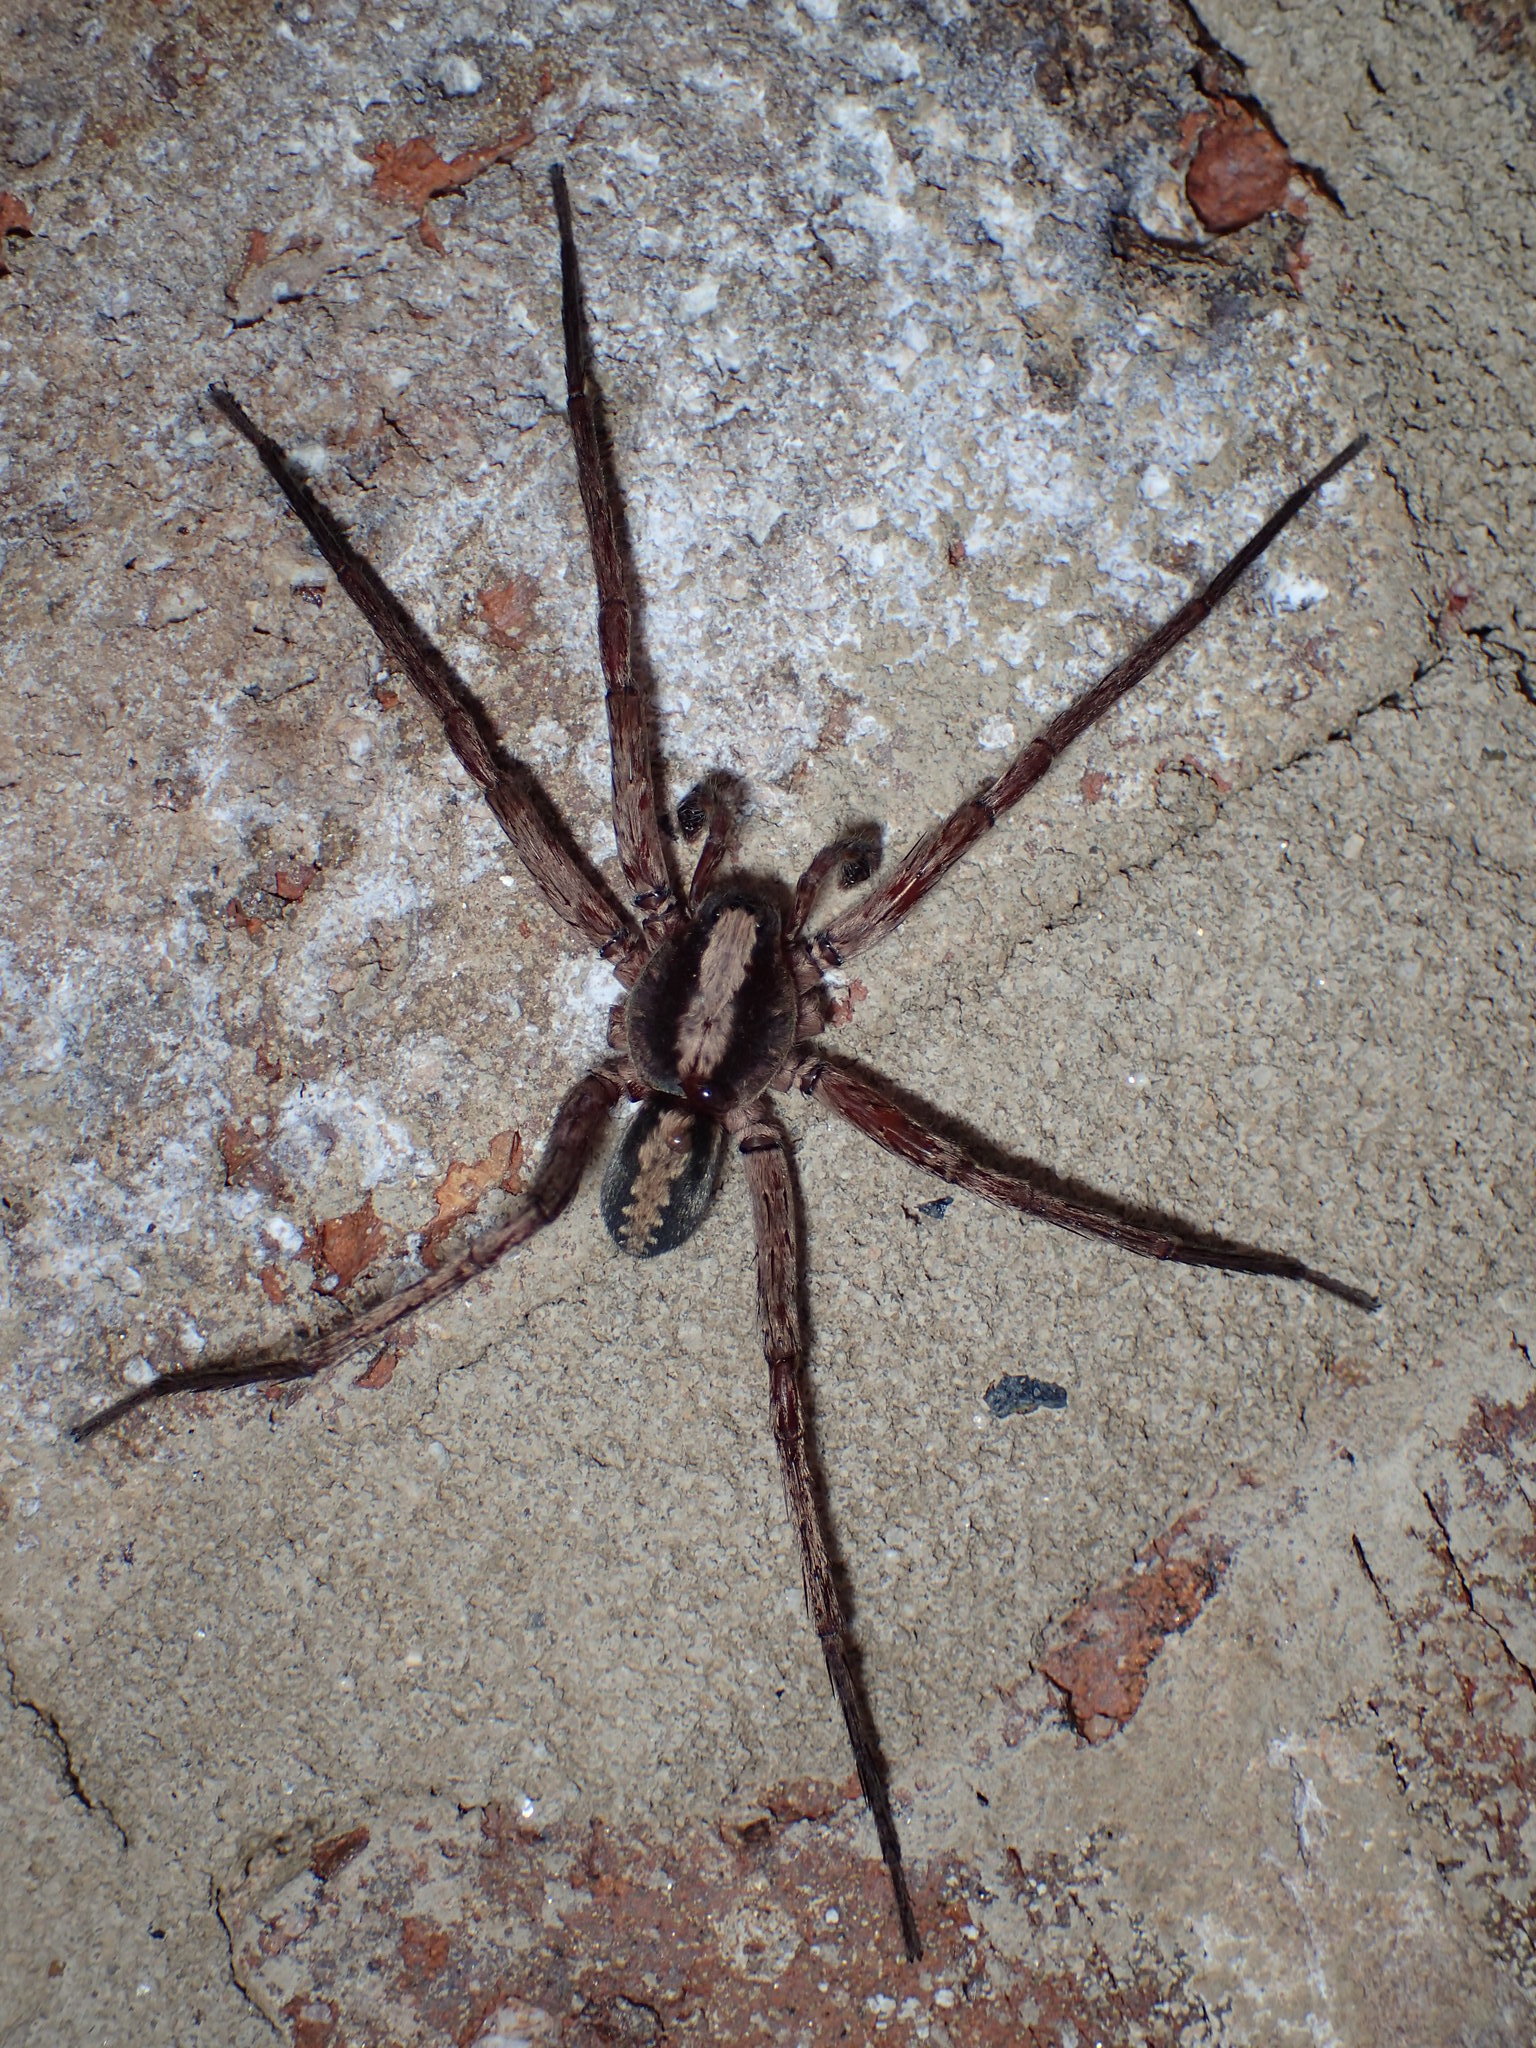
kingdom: Animalia
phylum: Arthropoda
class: Arachnida
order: Araneae
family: Ctenidae
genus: Ctenus
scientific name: Ctenus hibernalis
